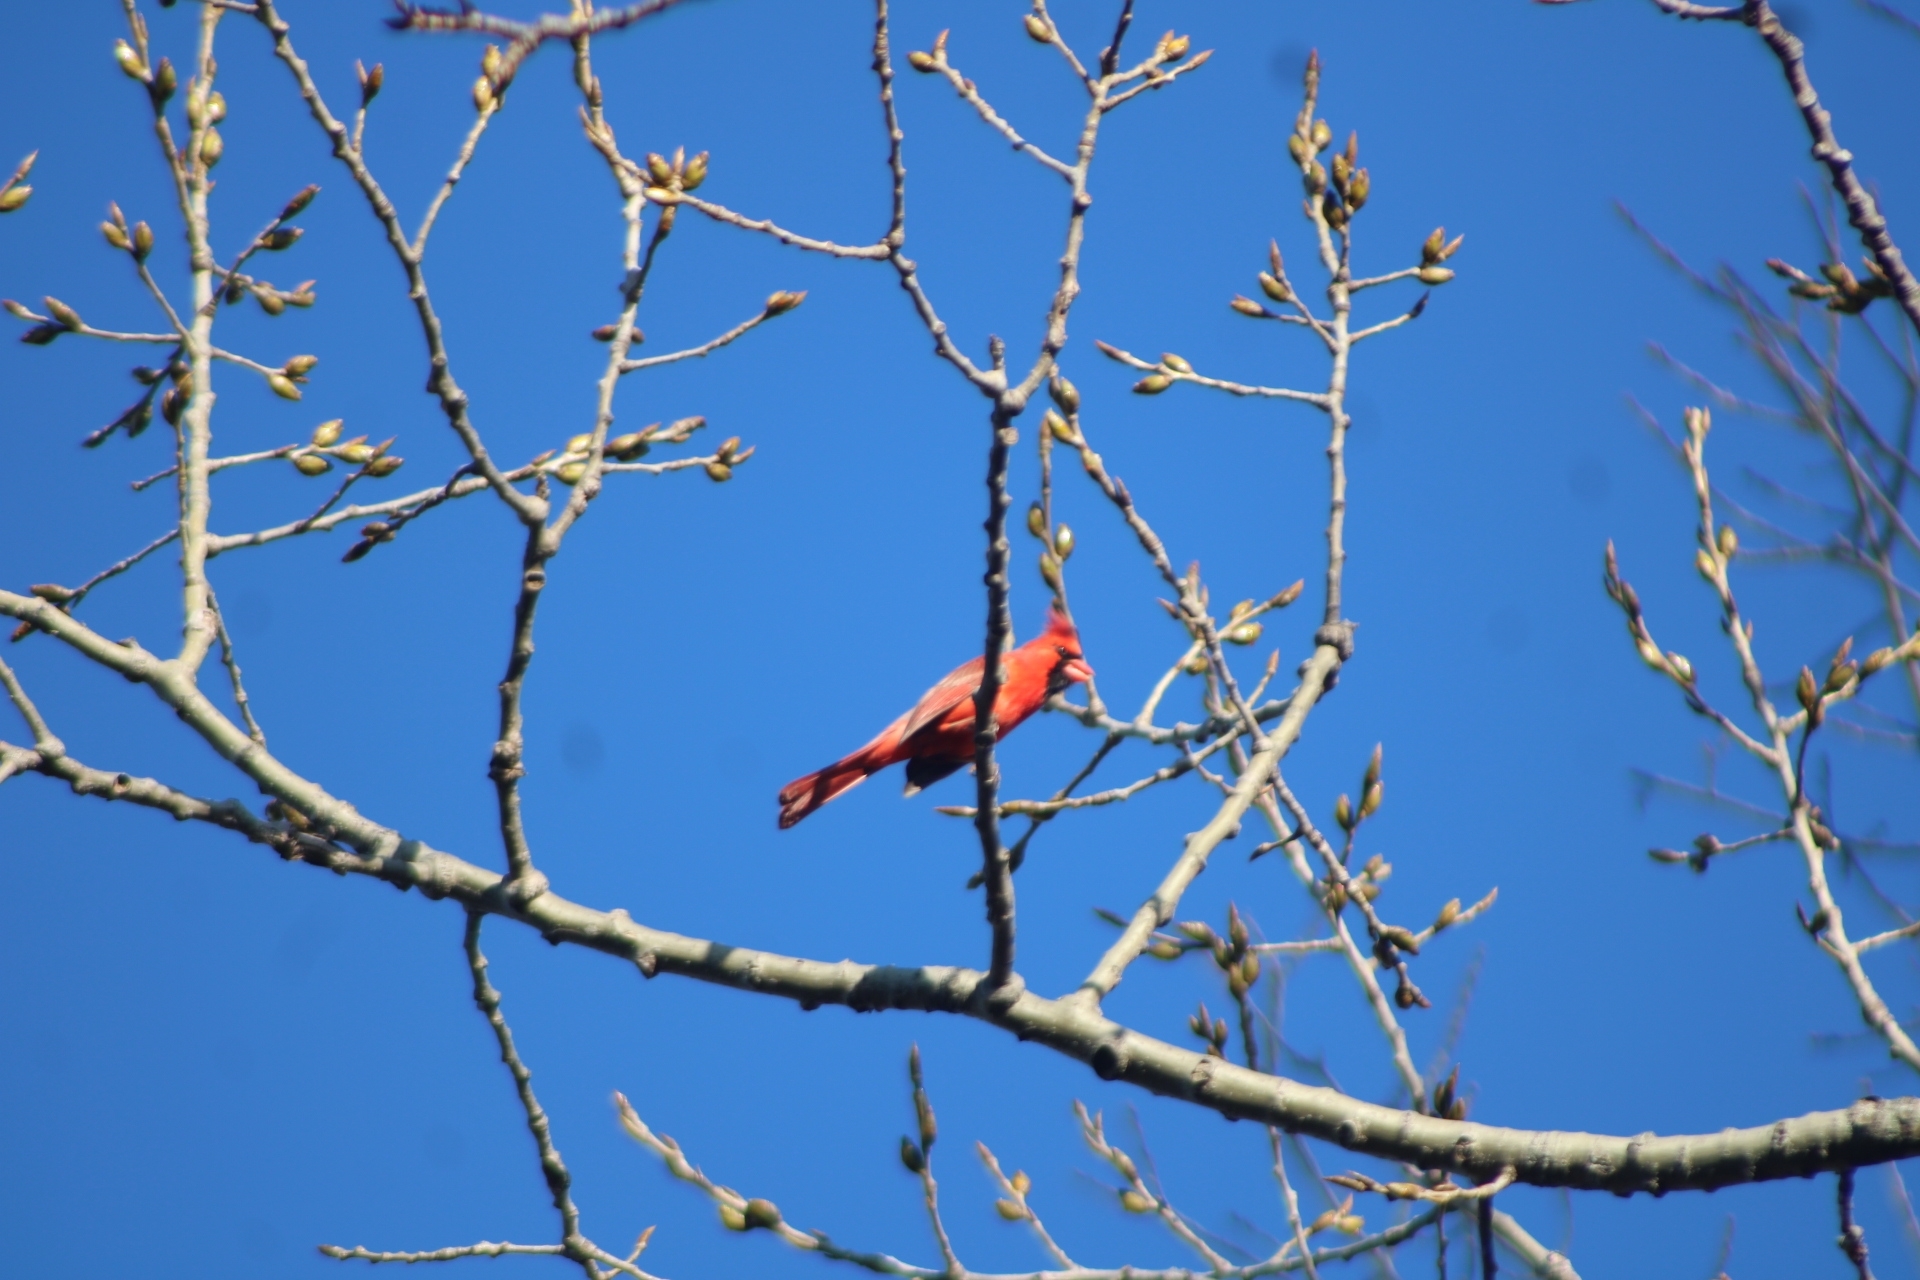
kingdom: Animalia
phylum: Chordata
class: Aves
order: Passeriformes
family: Cardinalidae
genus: Cardinalis
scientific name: Cardinalis cardinalis
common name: Northern cardinal
